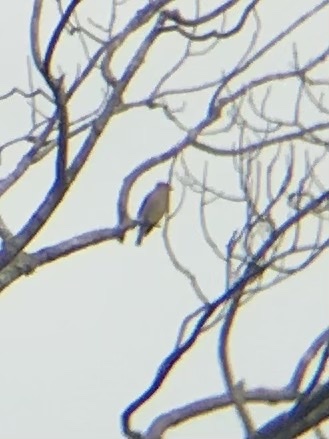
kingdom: Animalia
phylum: Chordata
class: Aves
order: Passeriformes
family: Bombycillidae
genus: Bombycilla
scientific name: Bombycilla cedrorum
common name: Cedar waxwing
